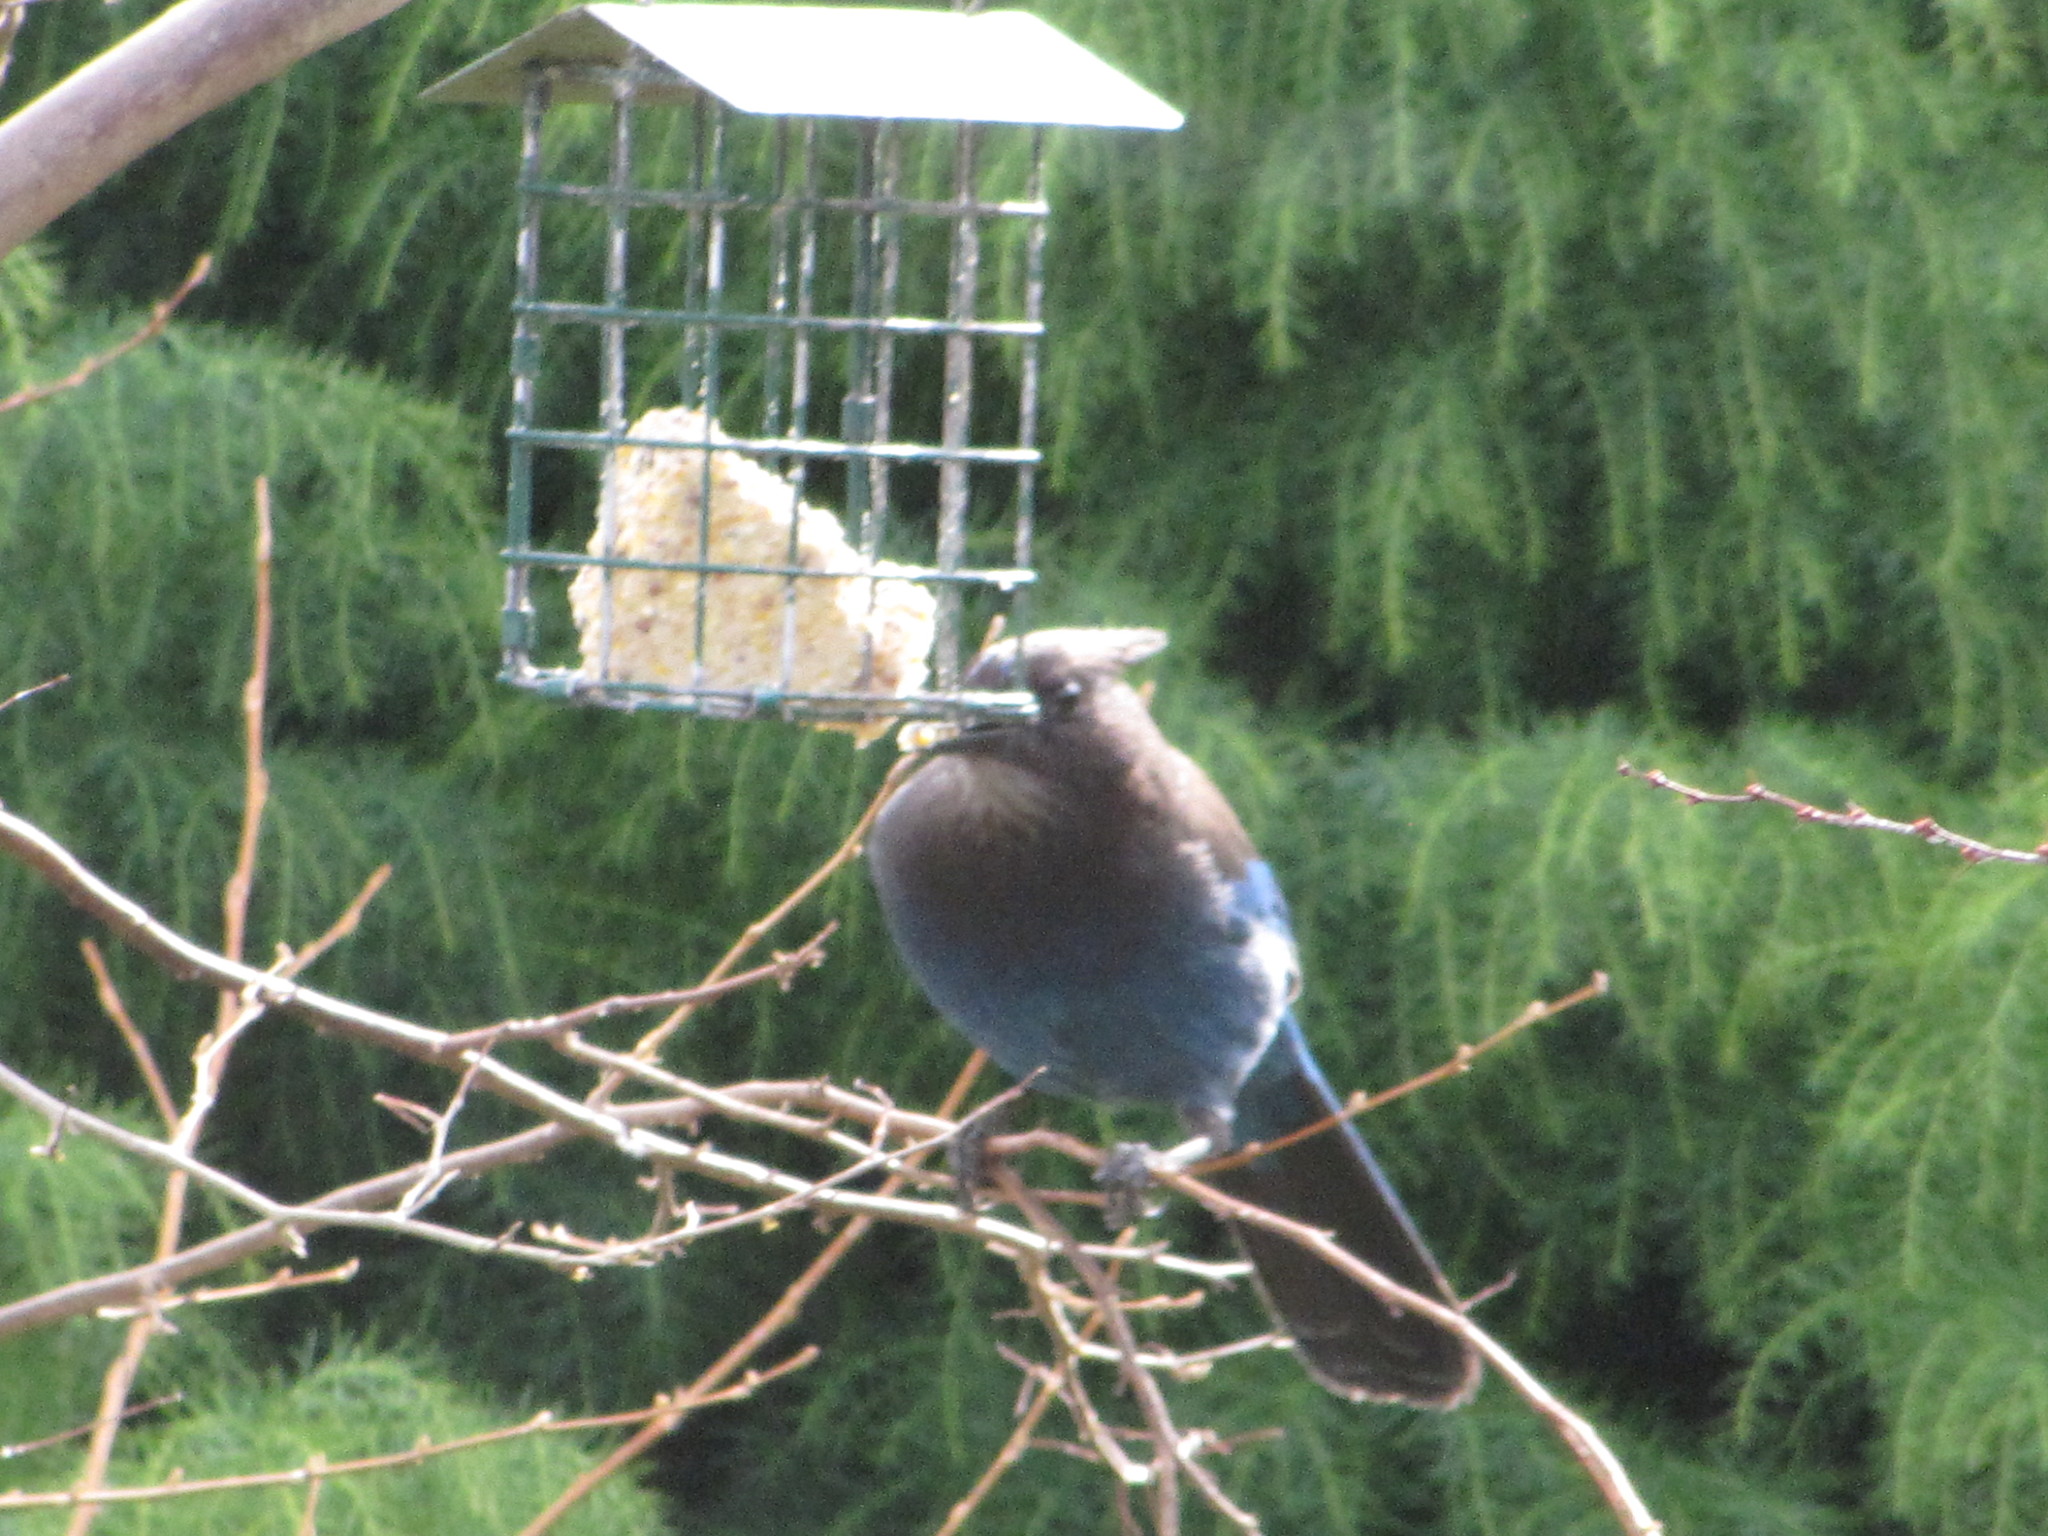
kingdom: Animalia
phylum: Chordata
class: Aves
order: Passeriformes
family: Corvidae
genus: Cyanocitta
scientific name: Cyanocitta stelleri
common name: Steller's jay
